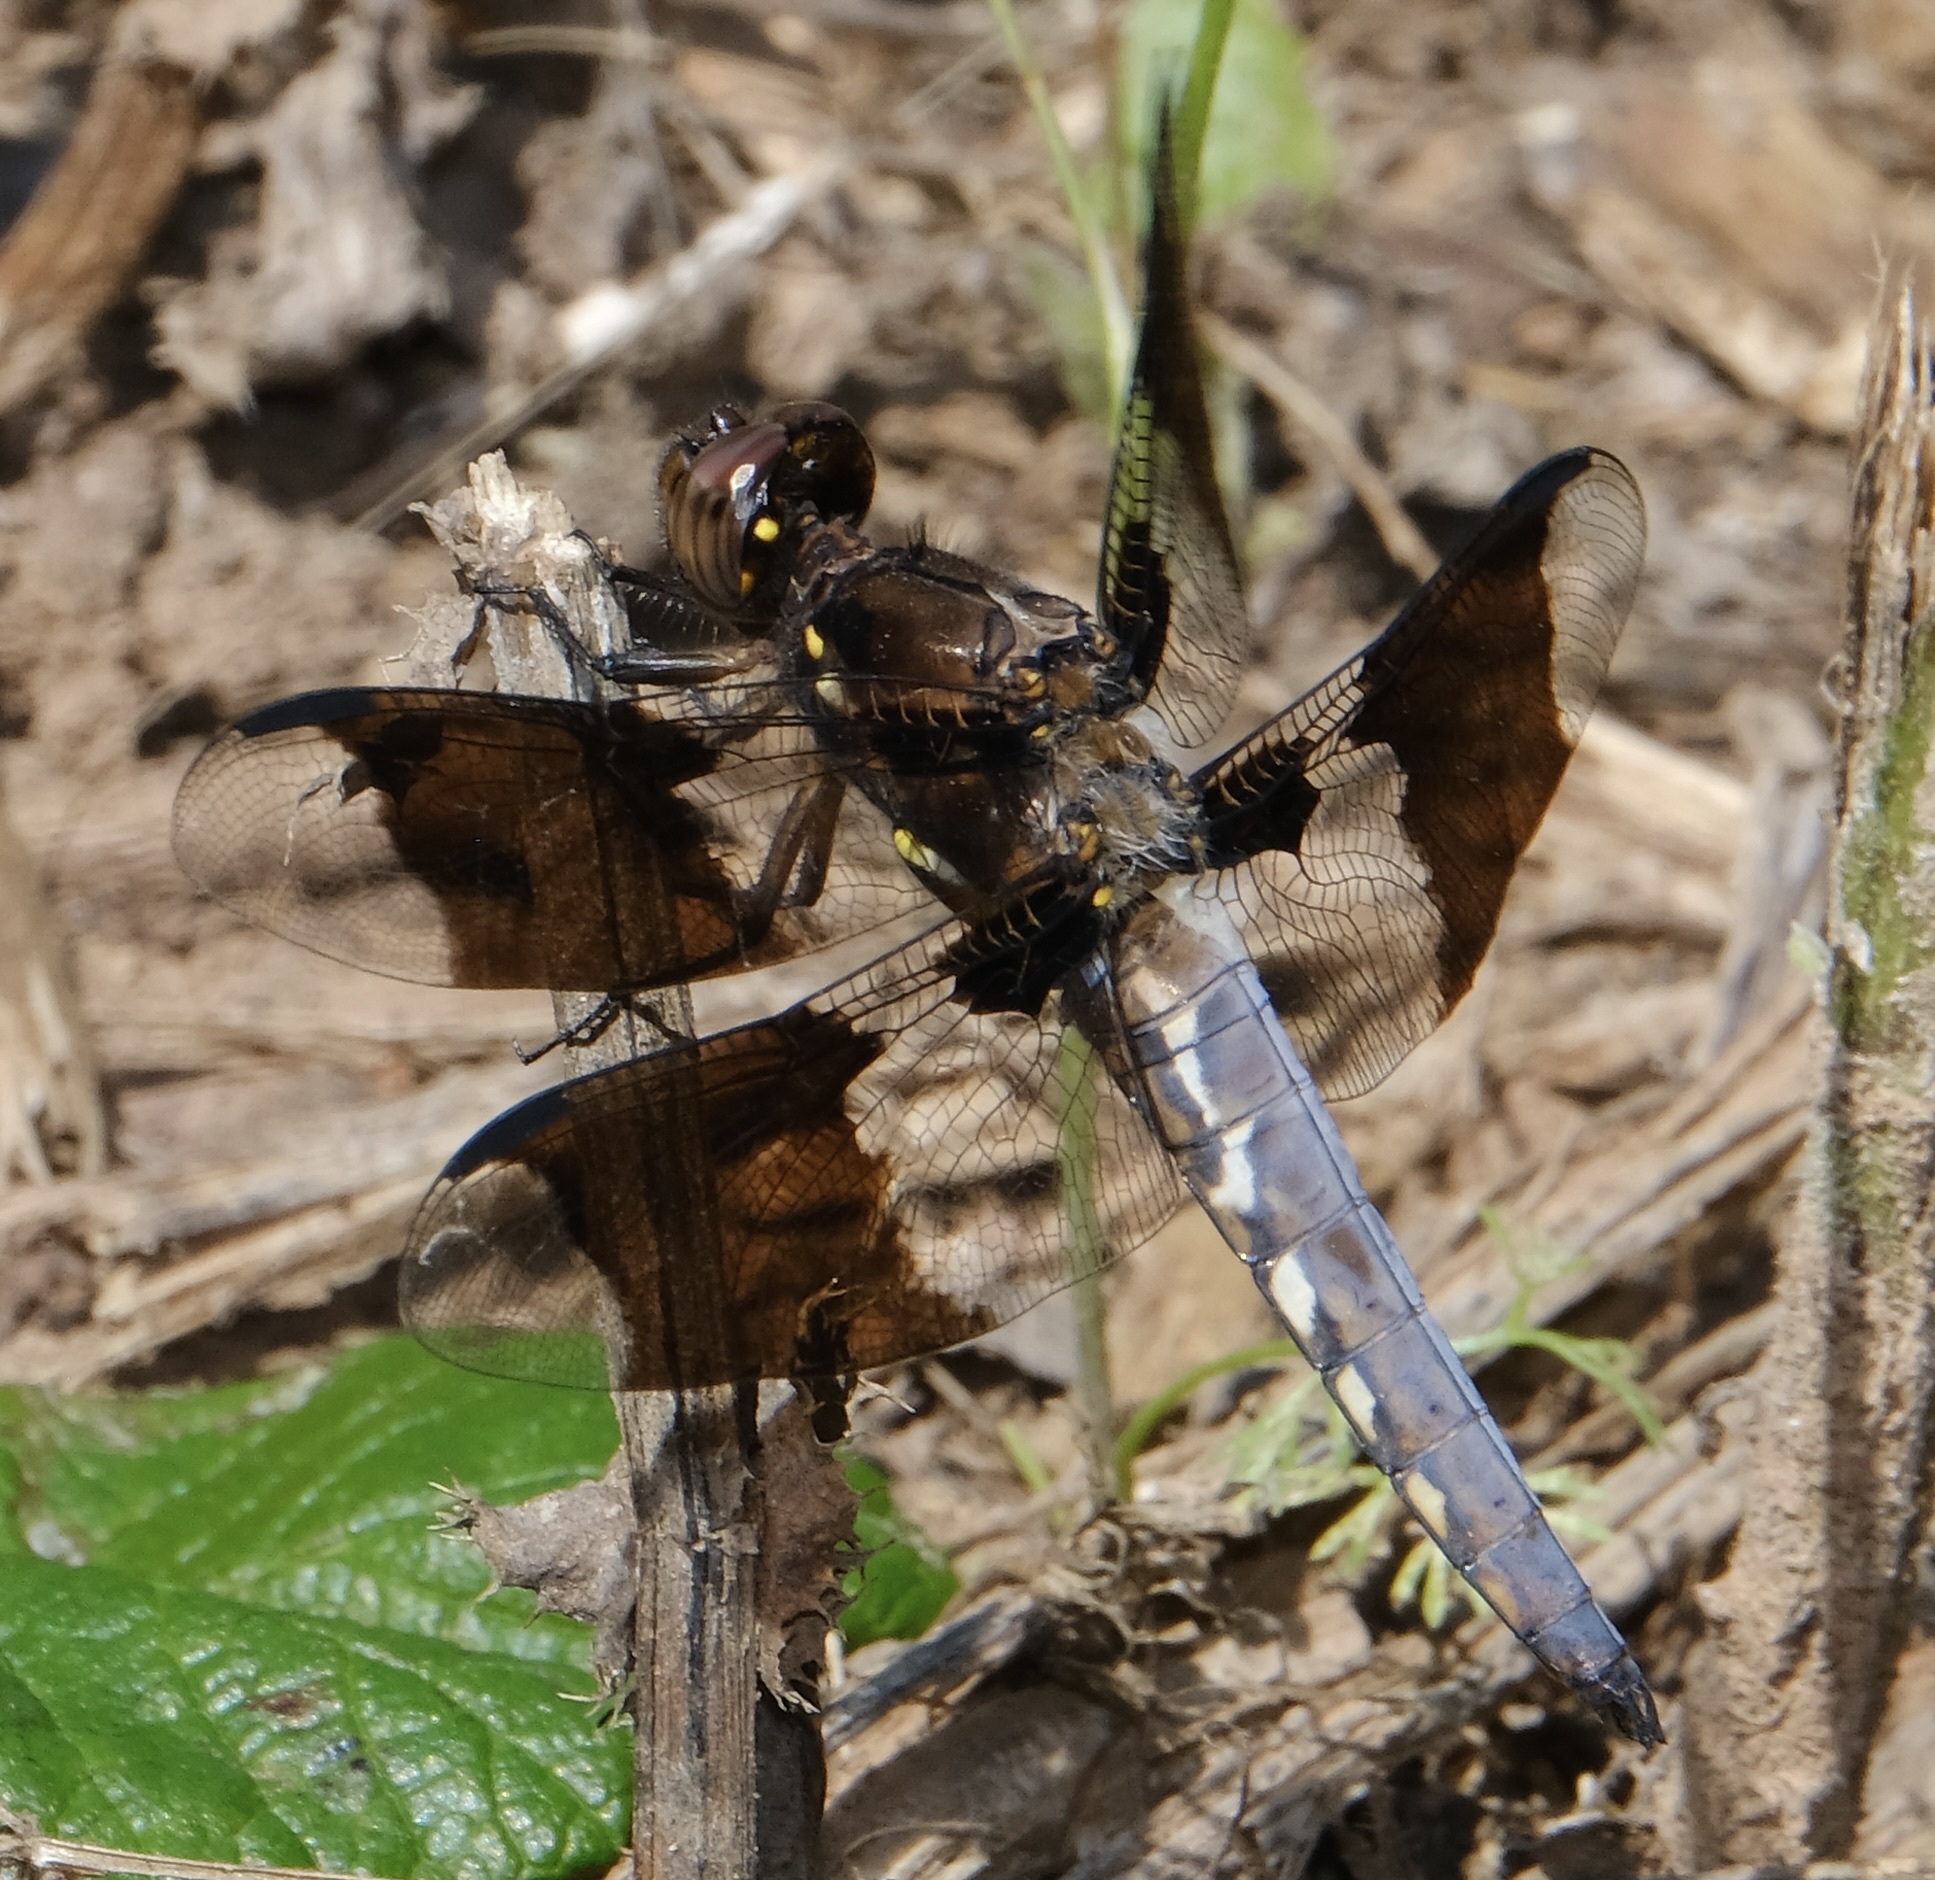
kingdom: Animalia
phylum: Arthropoda
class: Insecta
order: Odonata
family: Libellulidae
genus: Plathemis
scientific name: Plathemis lydia
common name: Common whitetail
